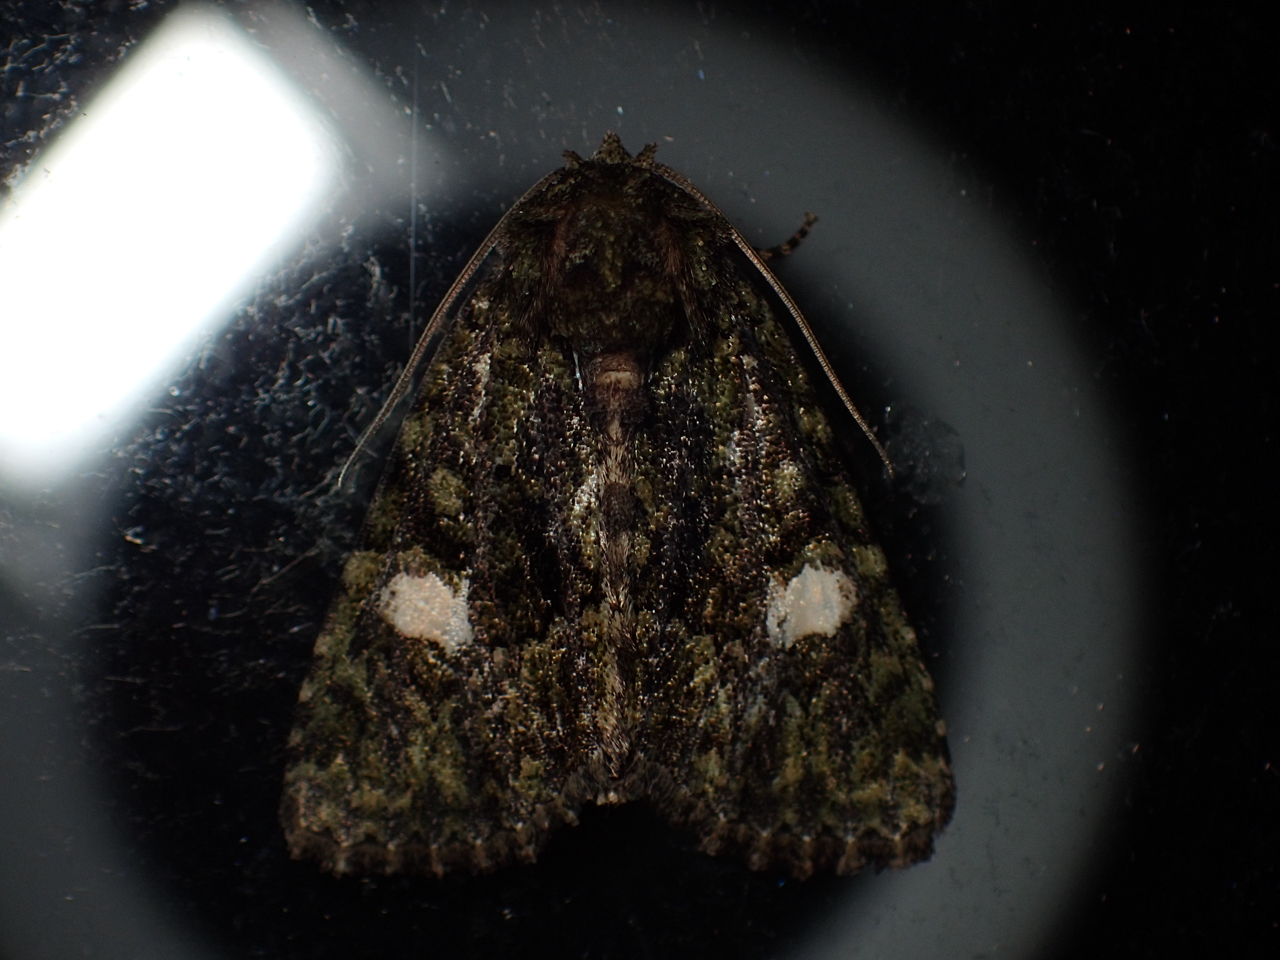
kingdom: Animalia
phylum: Arthropoda
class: Insecta
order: Lepidoptera
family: Noctuidae
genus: Phosphila
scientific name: Phosphila miselioides
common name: Spotted phosphila moth
